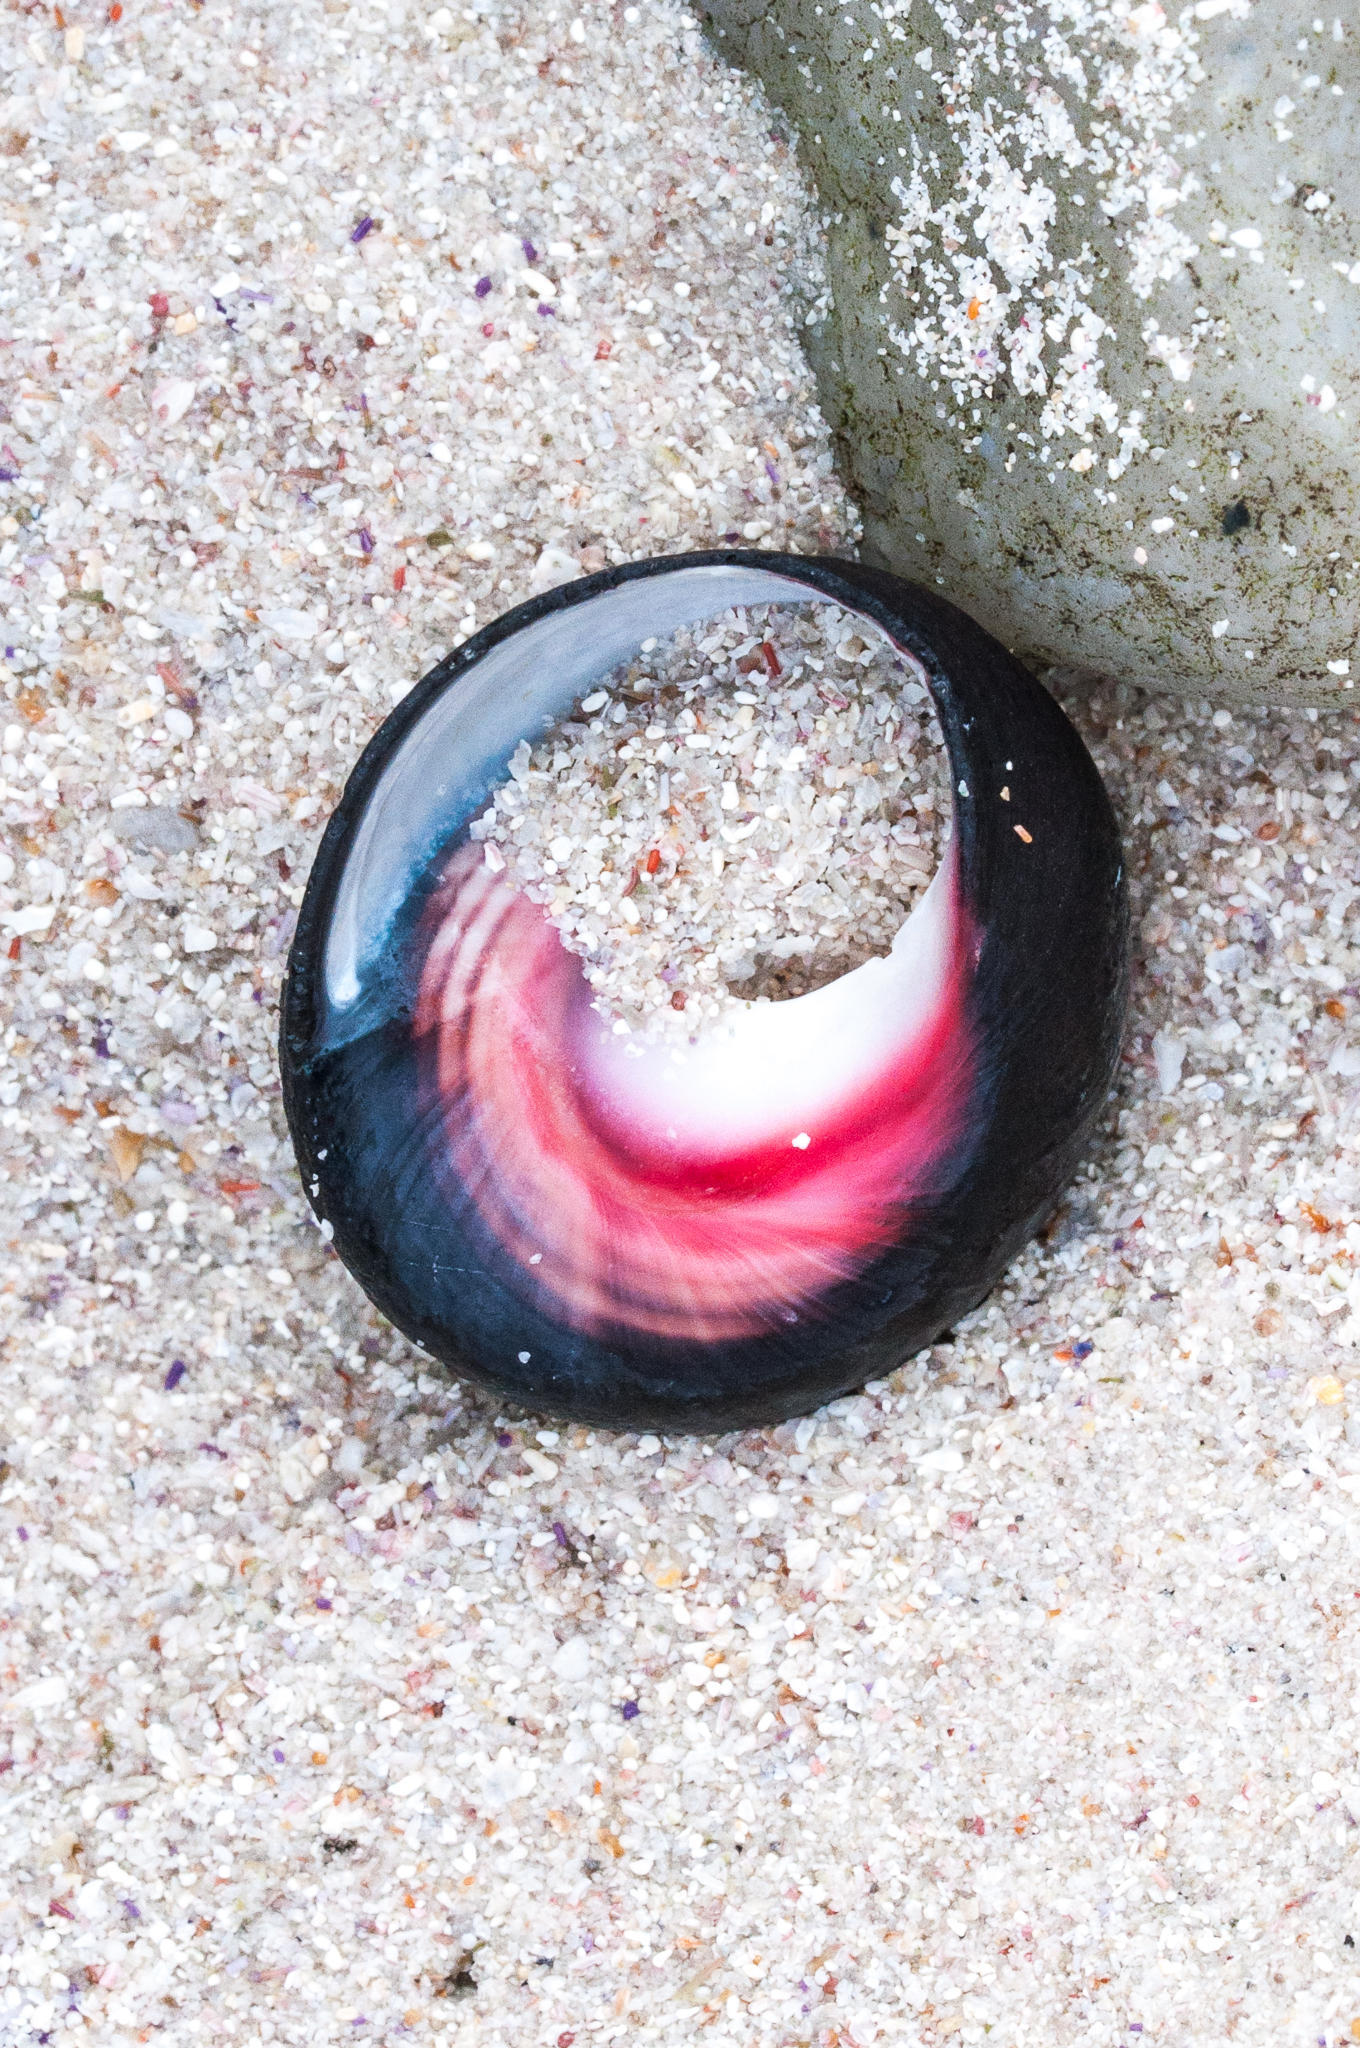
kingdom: Animalia
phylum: Mollusca
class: Gastropoda
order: Trochida
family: Trochidae
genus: Oxystele
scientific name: Oxystele sinensis
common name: Pink-lipped topshell
